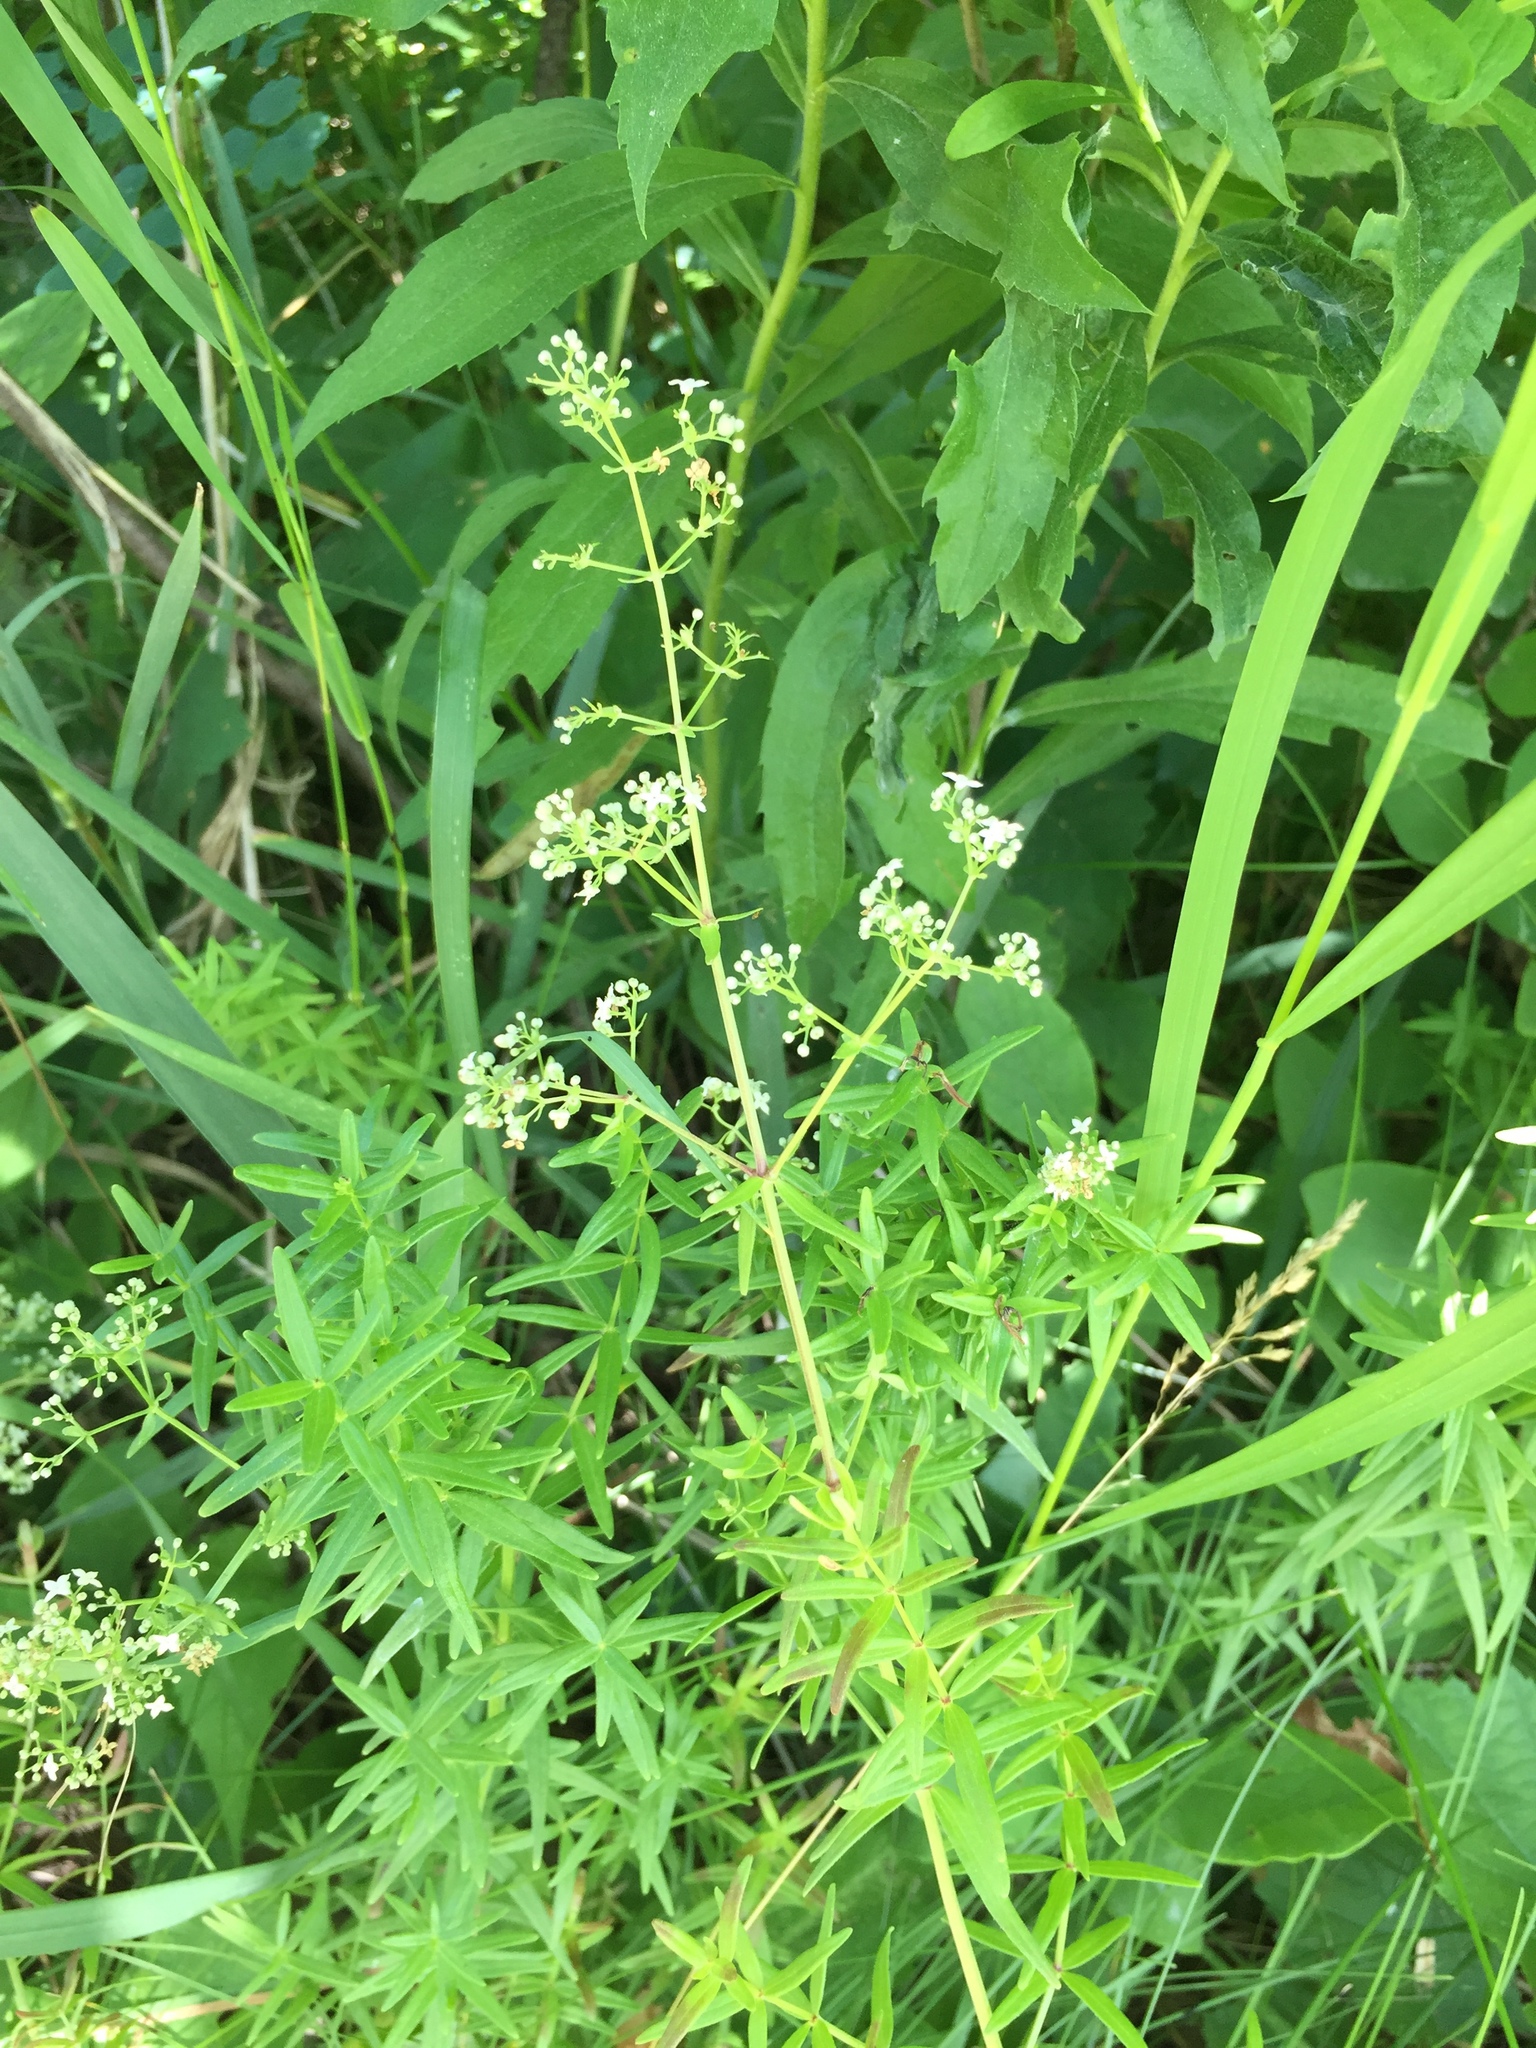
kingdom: Plantae
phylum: Tracheophyta
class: Magnoliopsida
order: Gentianales
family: Rubiaceae
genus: Galium
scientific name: Galium boreale
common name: Northern bedstraw
